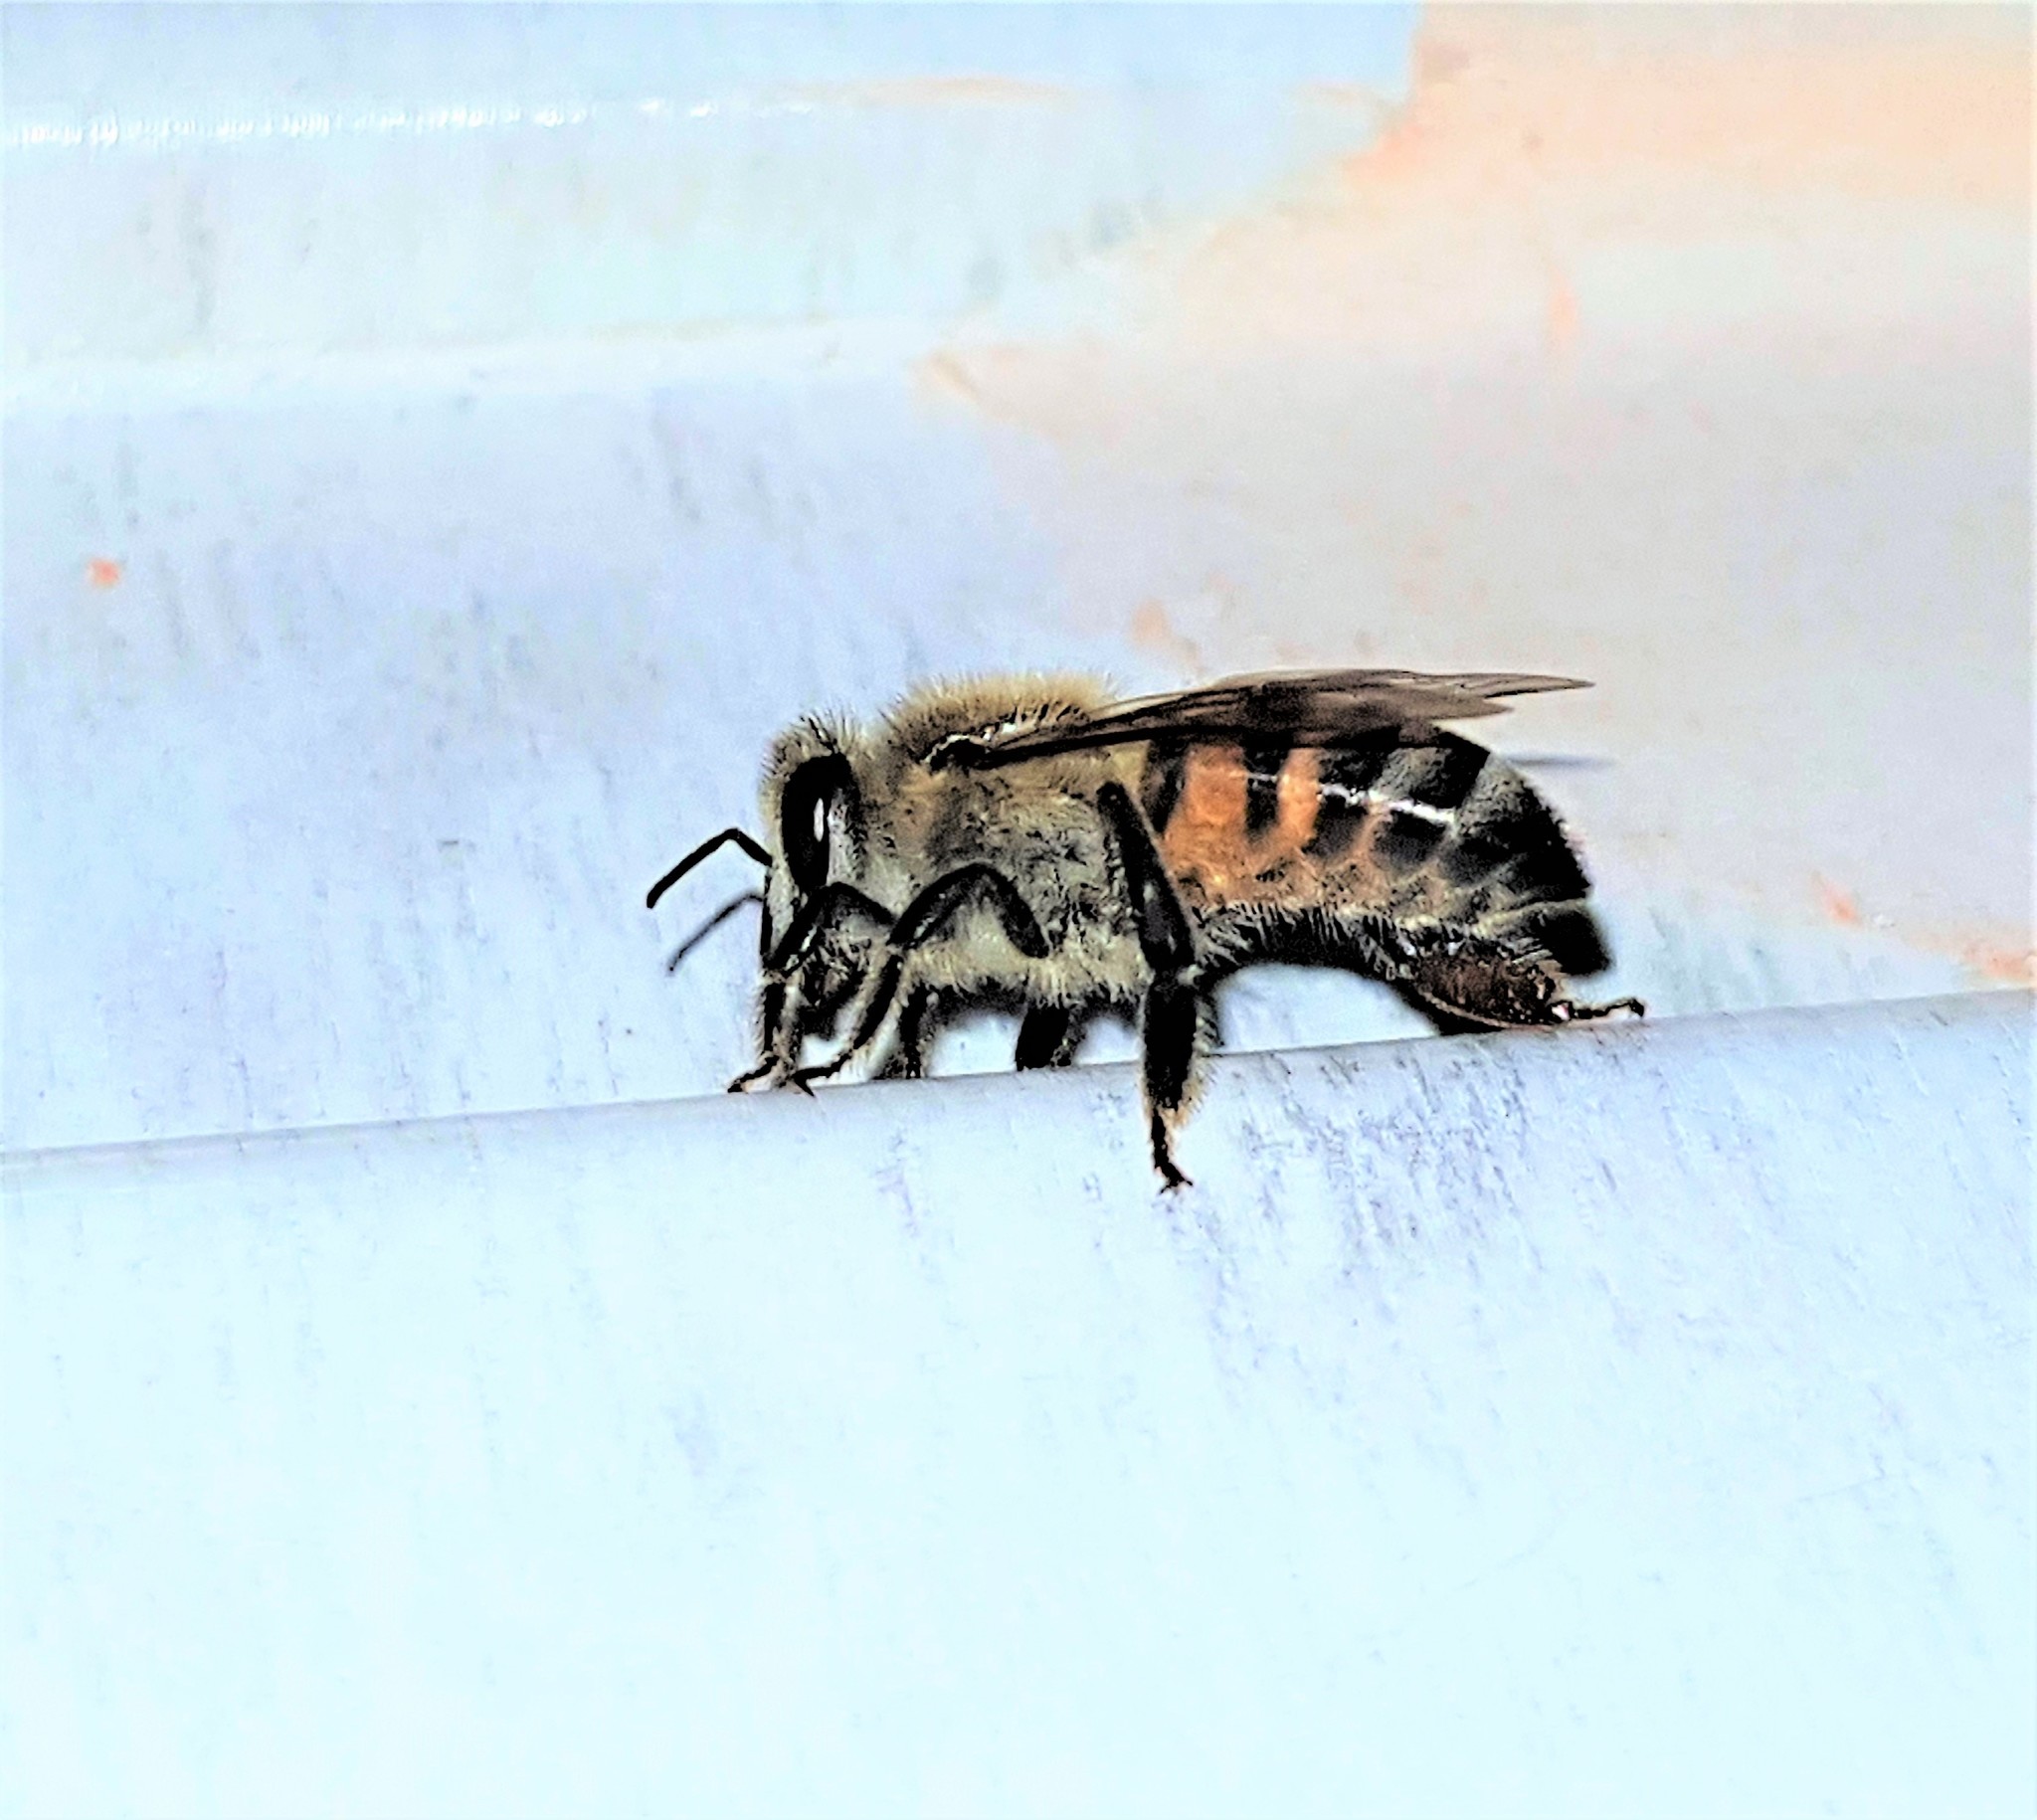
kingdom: Animalia
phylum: Arthropoda
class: Insecta
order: Hymenoptera
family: Apidae
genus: Apis
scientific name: Apis mellifera
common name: Honey bee
